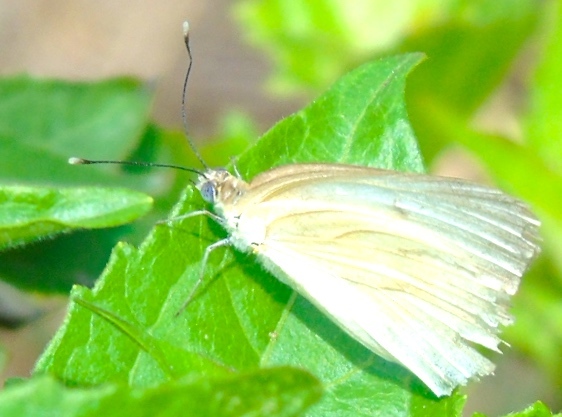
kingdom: Animalia
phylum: Arthropoda
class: Insecta
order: Lepidoptera
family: Pieridae
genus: Ascia
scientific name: Ascia monuste
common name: Great southern white
